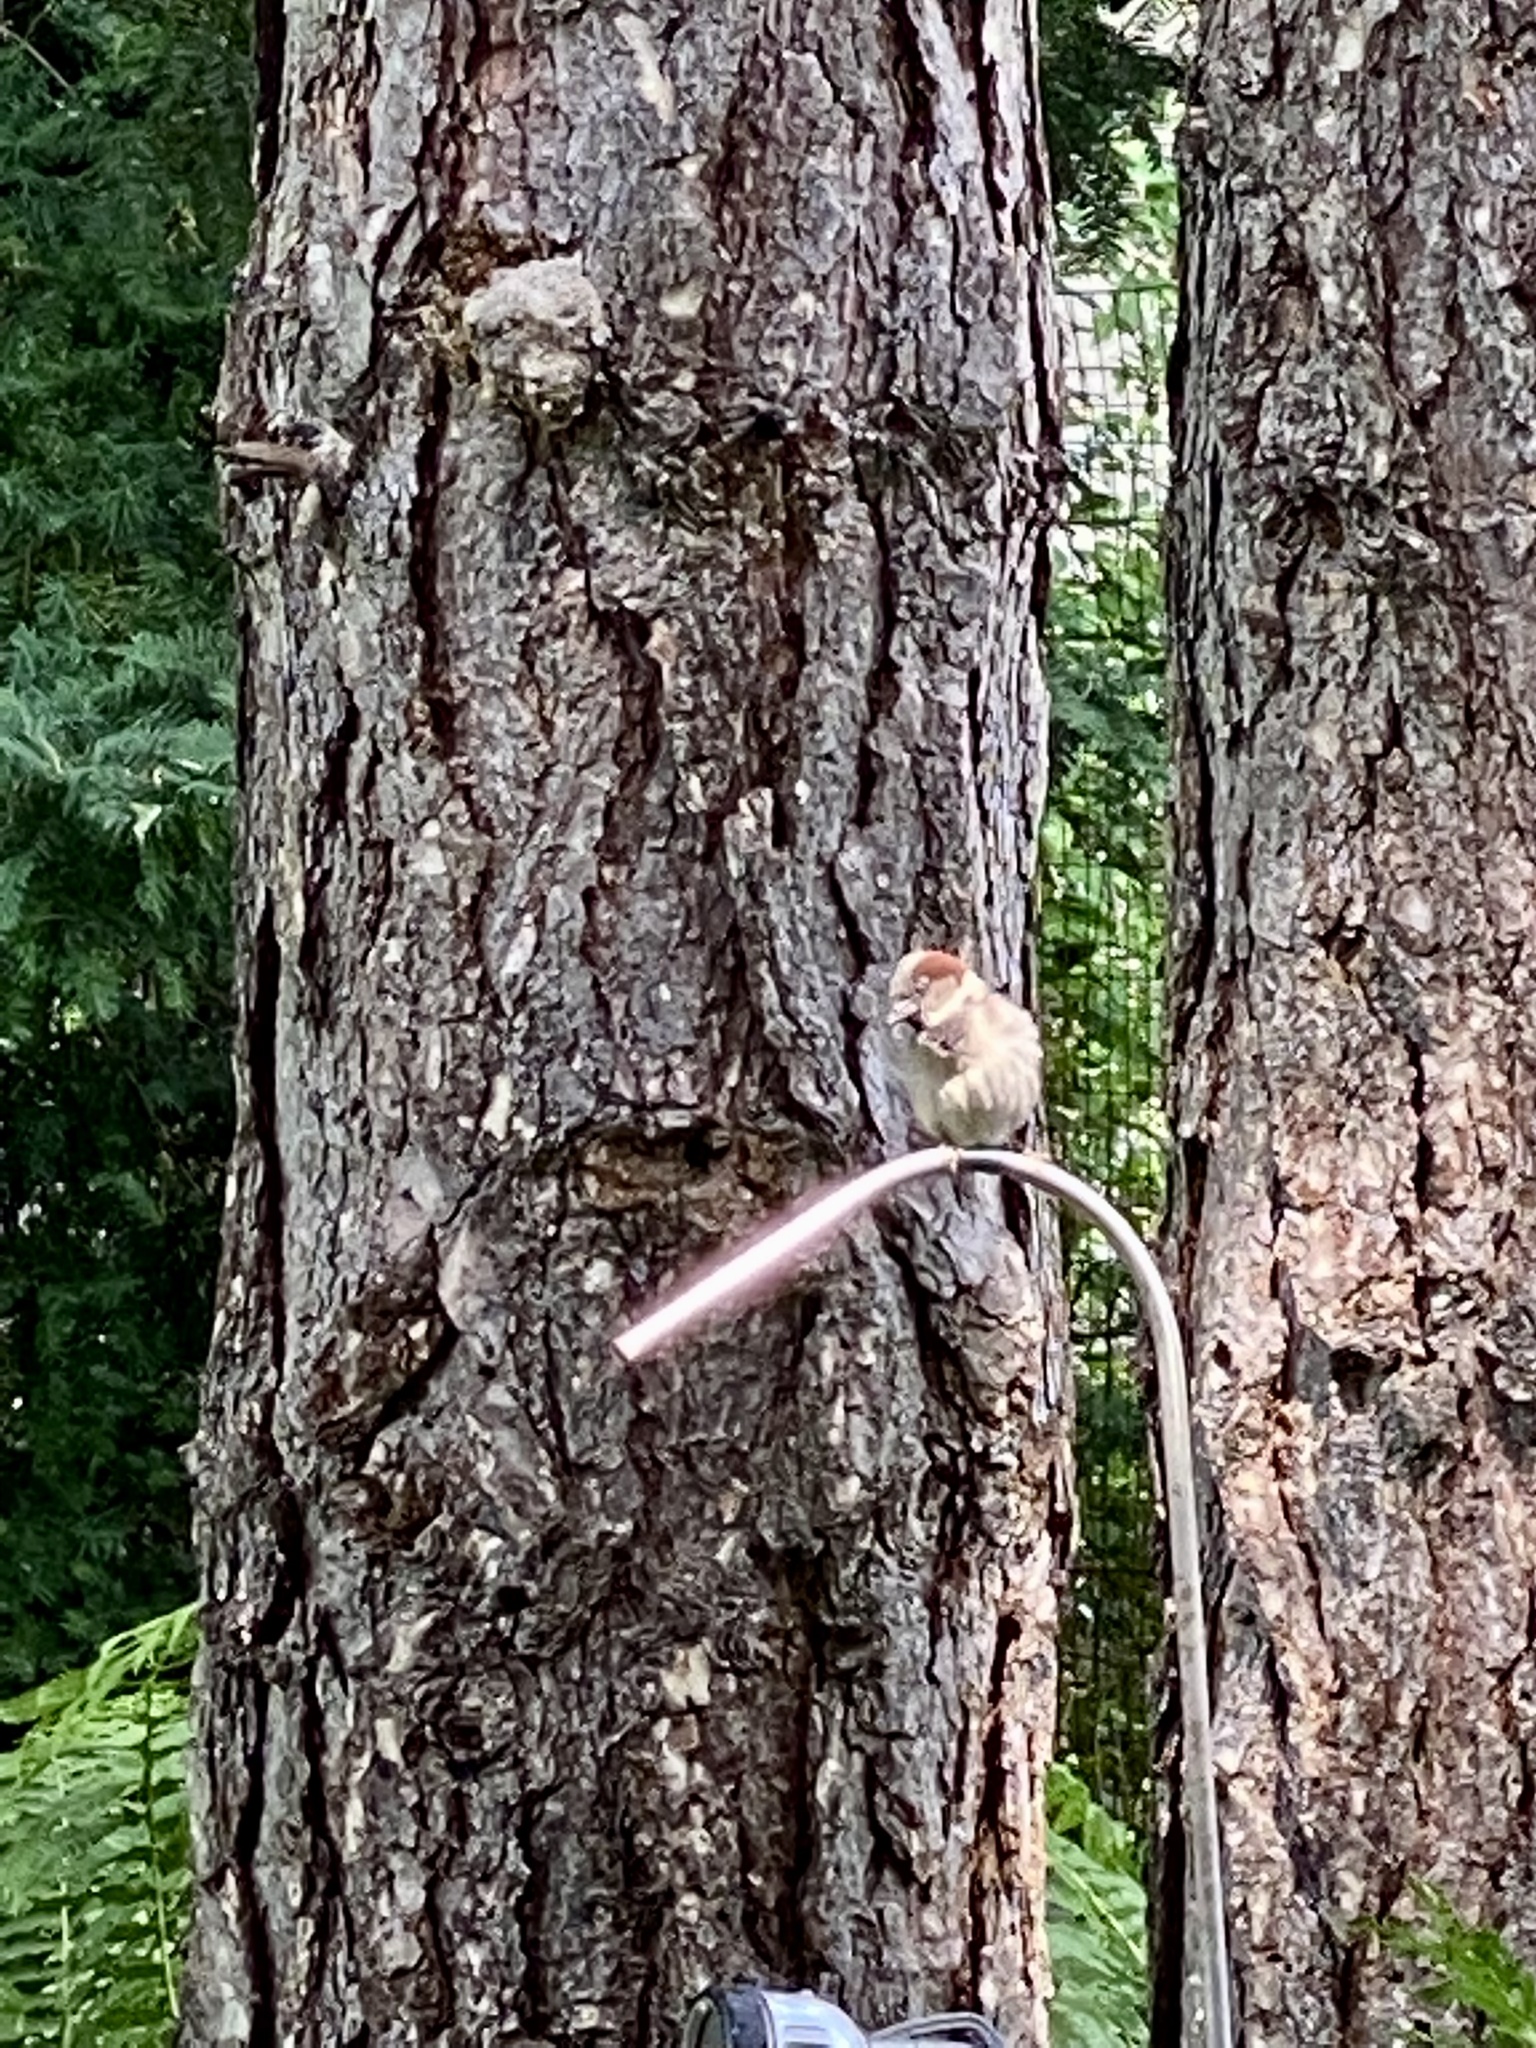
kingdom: Animalia
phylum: Chordata
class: Aves
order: Passeriformes
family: Passeridae
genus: Passer
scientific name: Passer domesticus
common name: House sparrow
